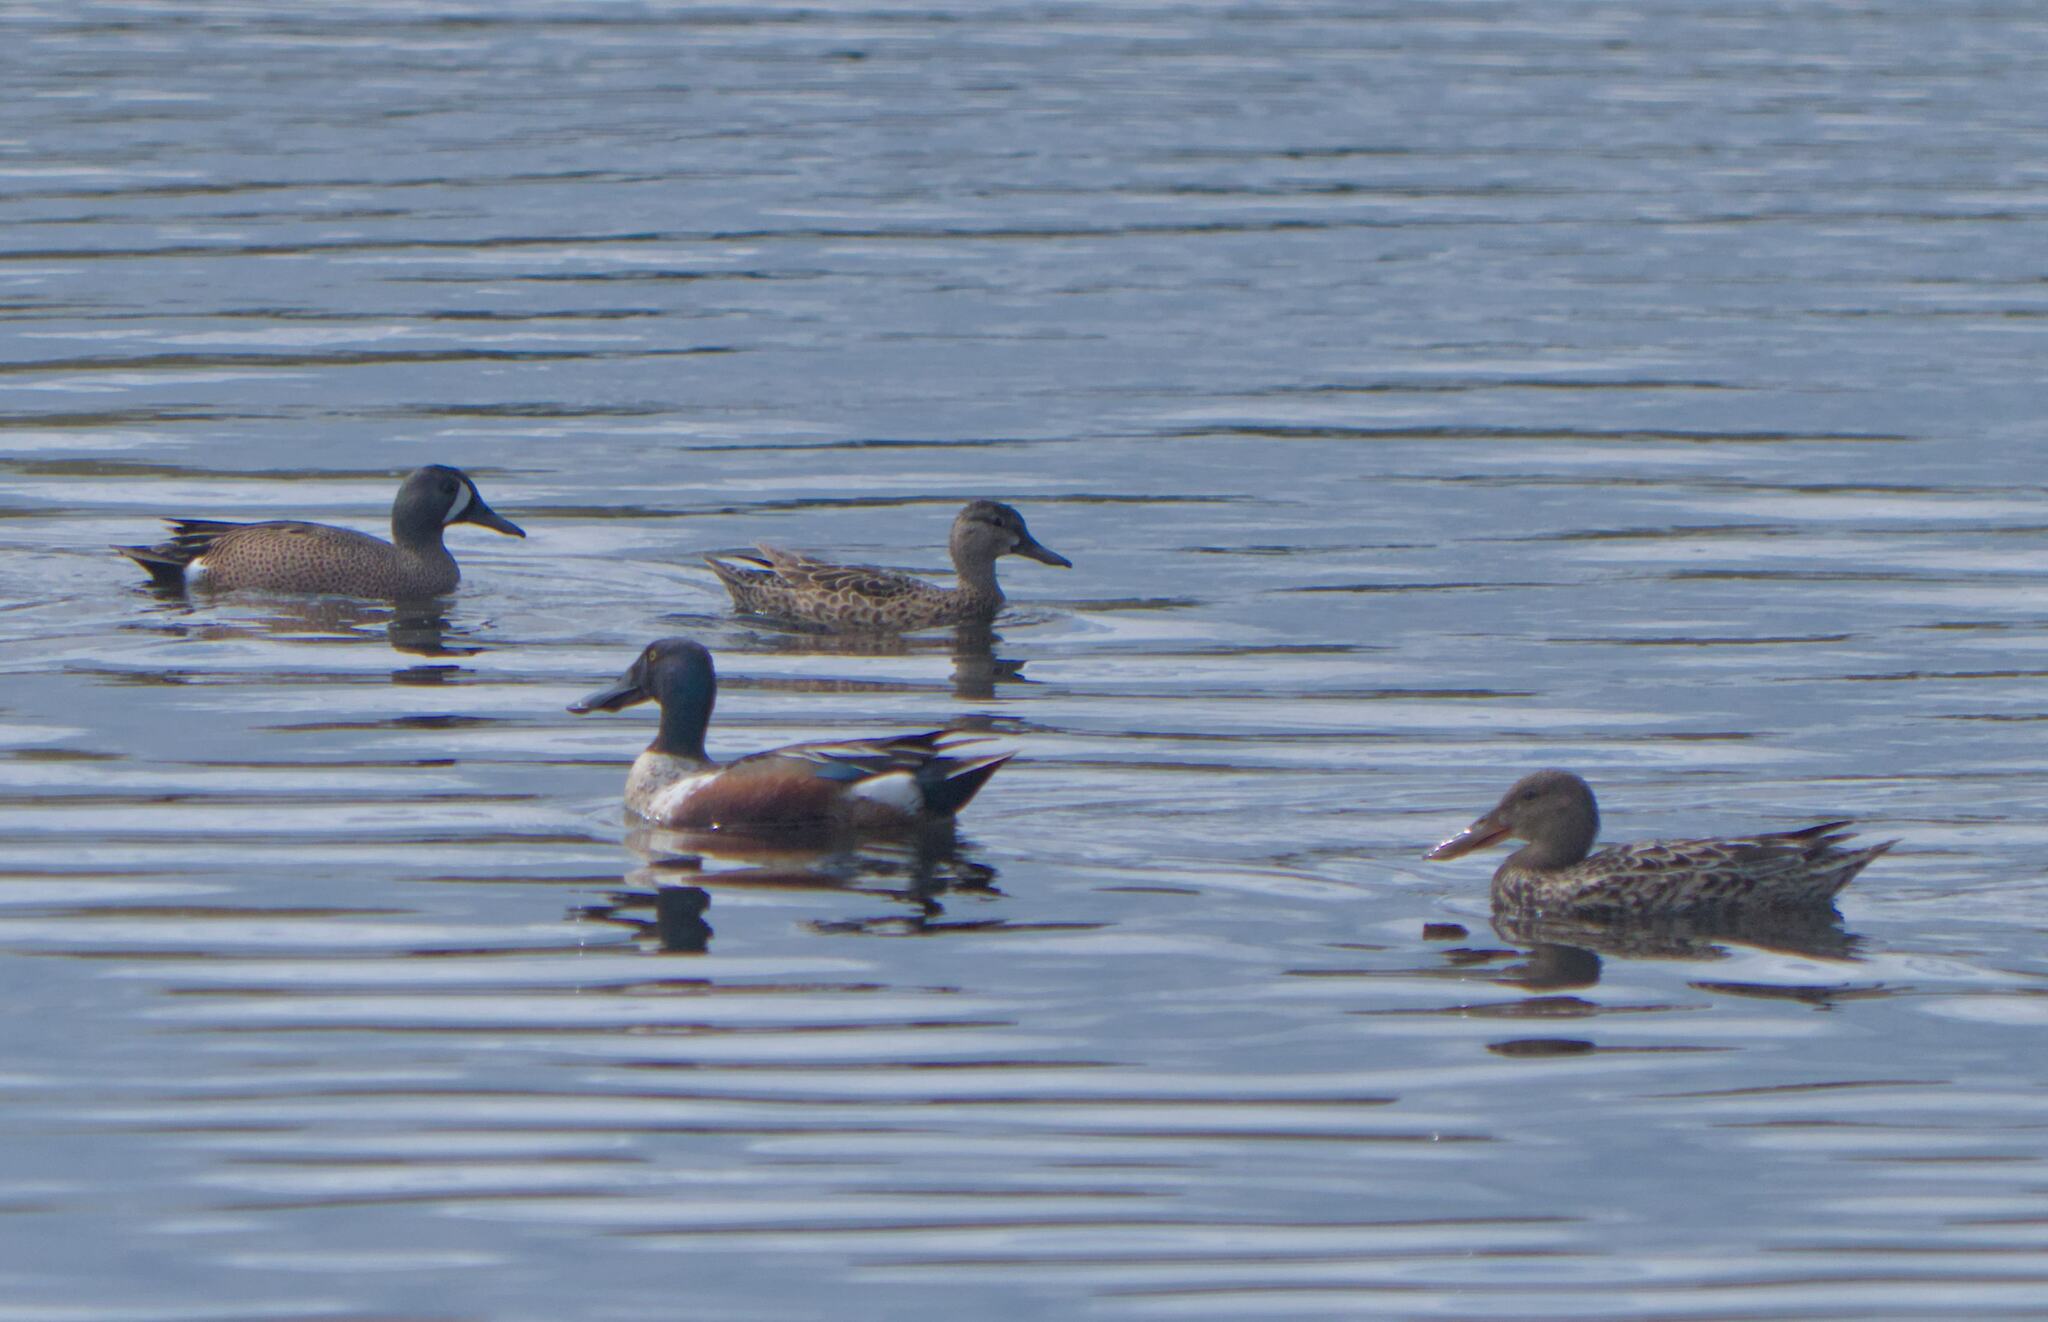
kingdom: Animalia
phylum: Chordata
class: Aves
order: Anseriformes
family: Anatidae
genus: Spatula
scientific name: Spatula clypeata
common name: Northern shoveler
